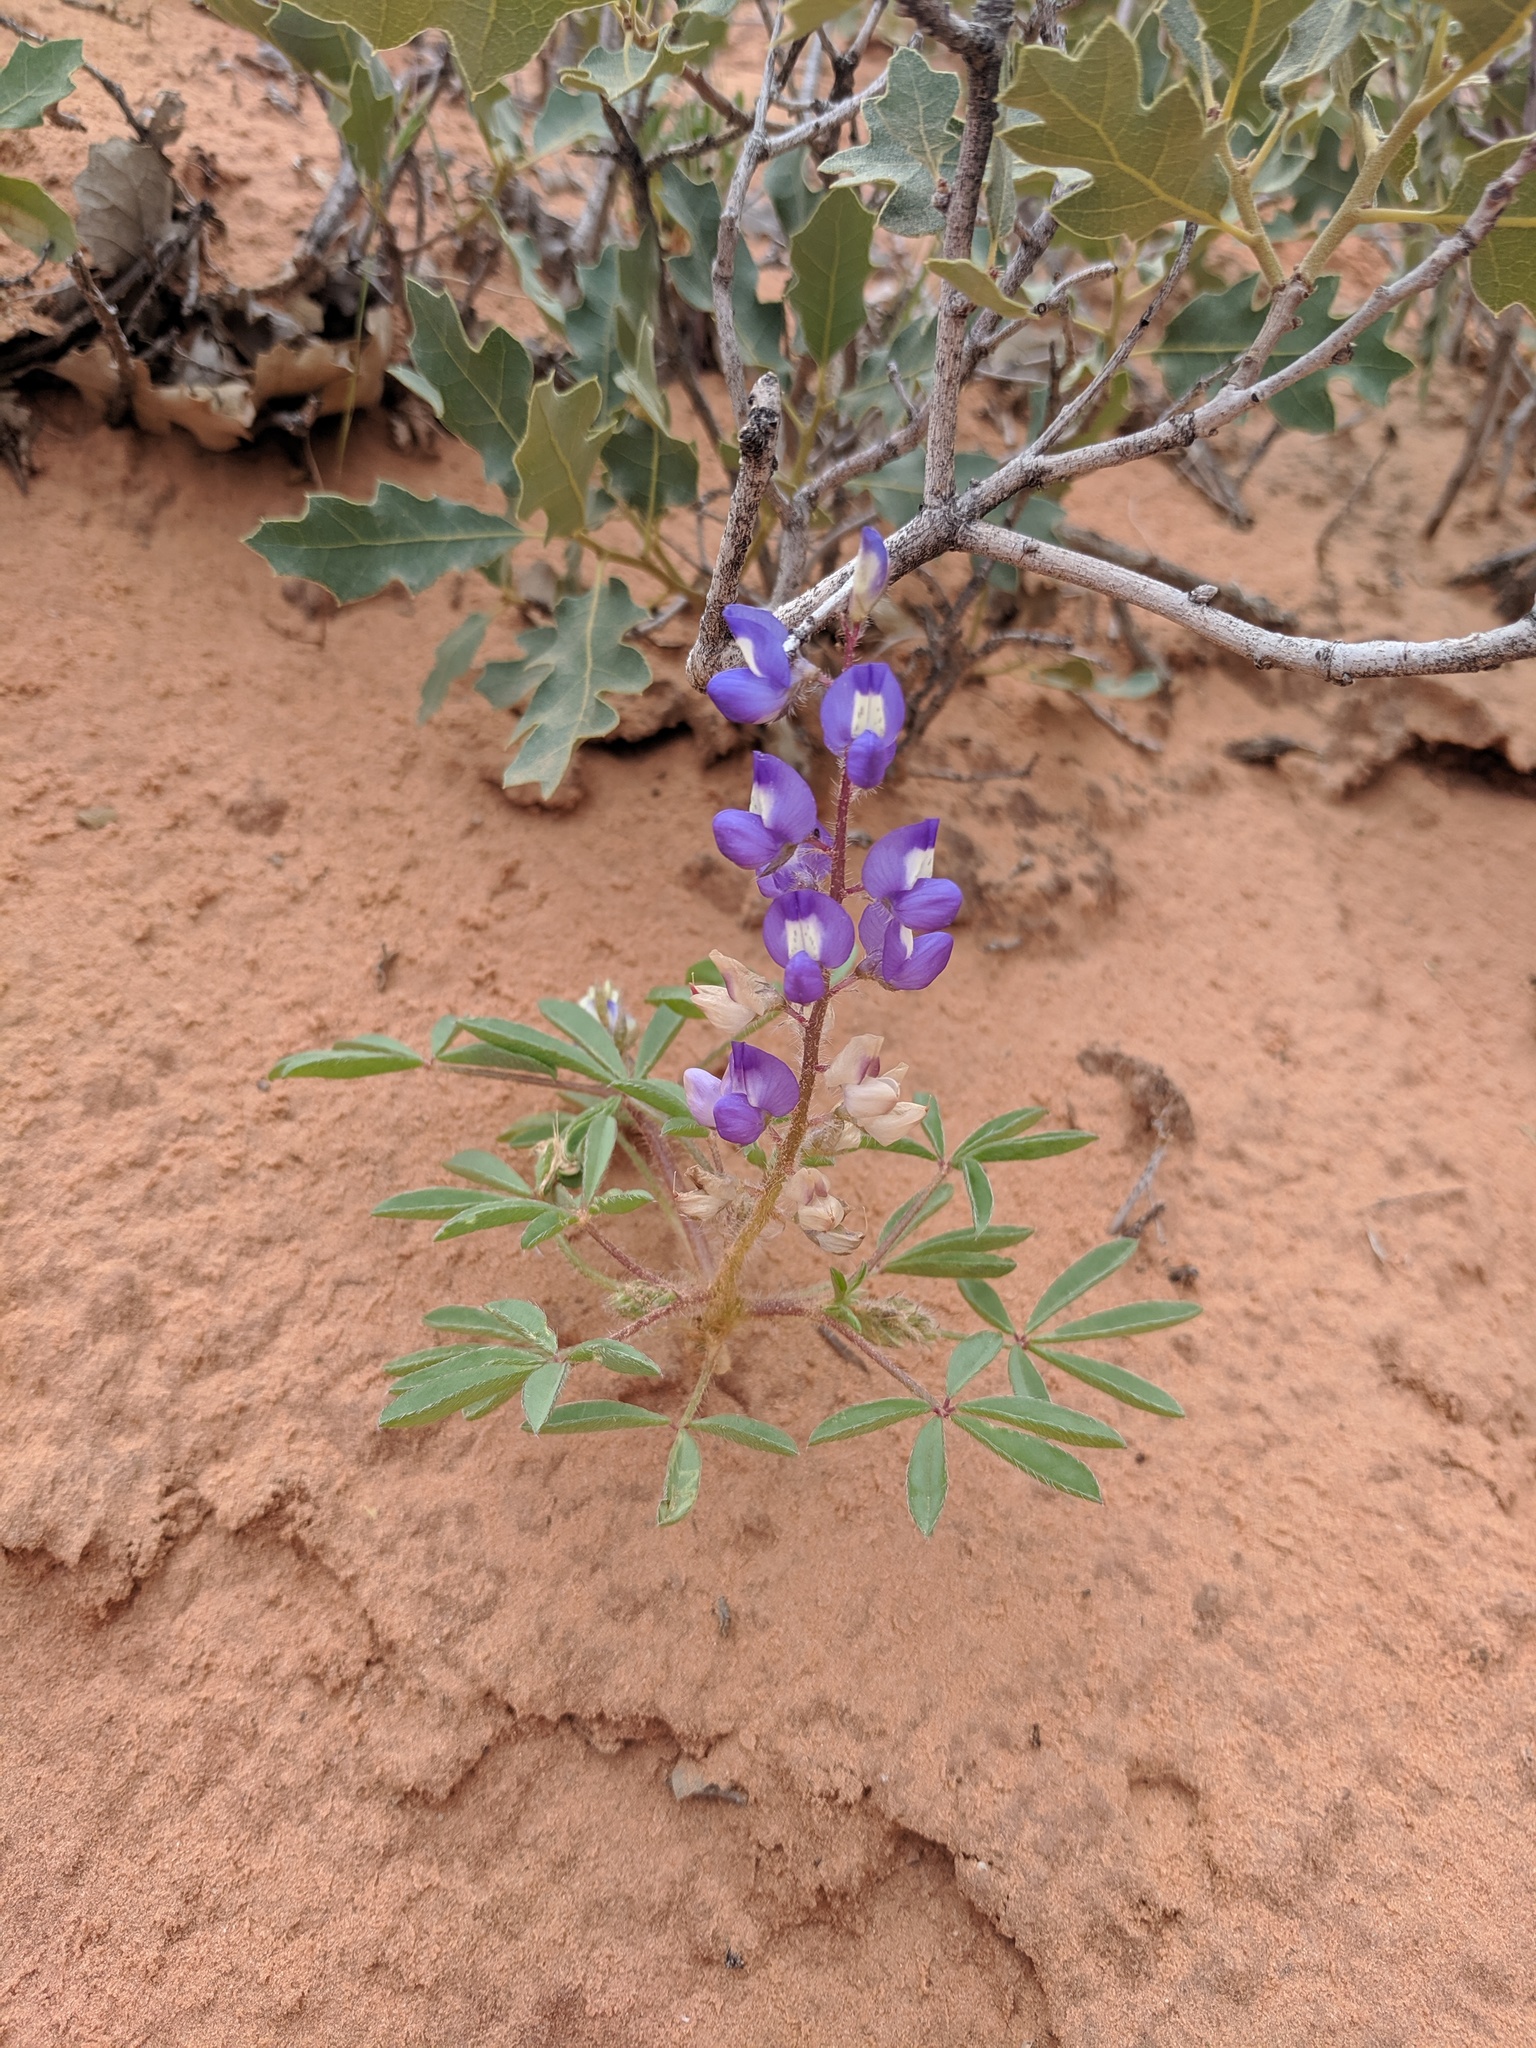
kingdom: Plantae
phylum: Tracheophyta
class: Magnoliopsida
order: Fabales
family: Fabaceae
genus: Lupinus
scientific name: Lupinus pusillus
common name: Low lupine
